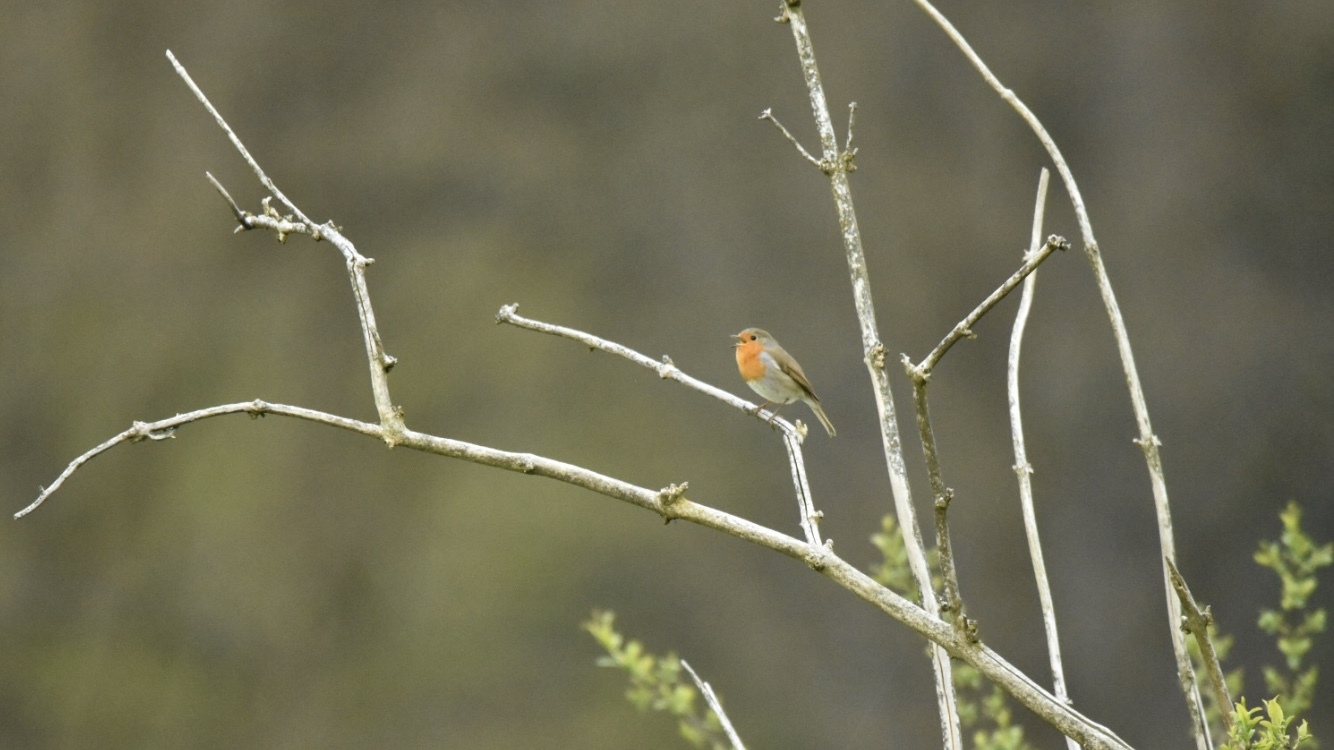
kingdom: Animalia
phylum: Chordata
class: Aves
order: Passeriformes
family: Muscicapidae
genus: Erithacus
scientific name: Erithacus rubecula
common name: European robin
